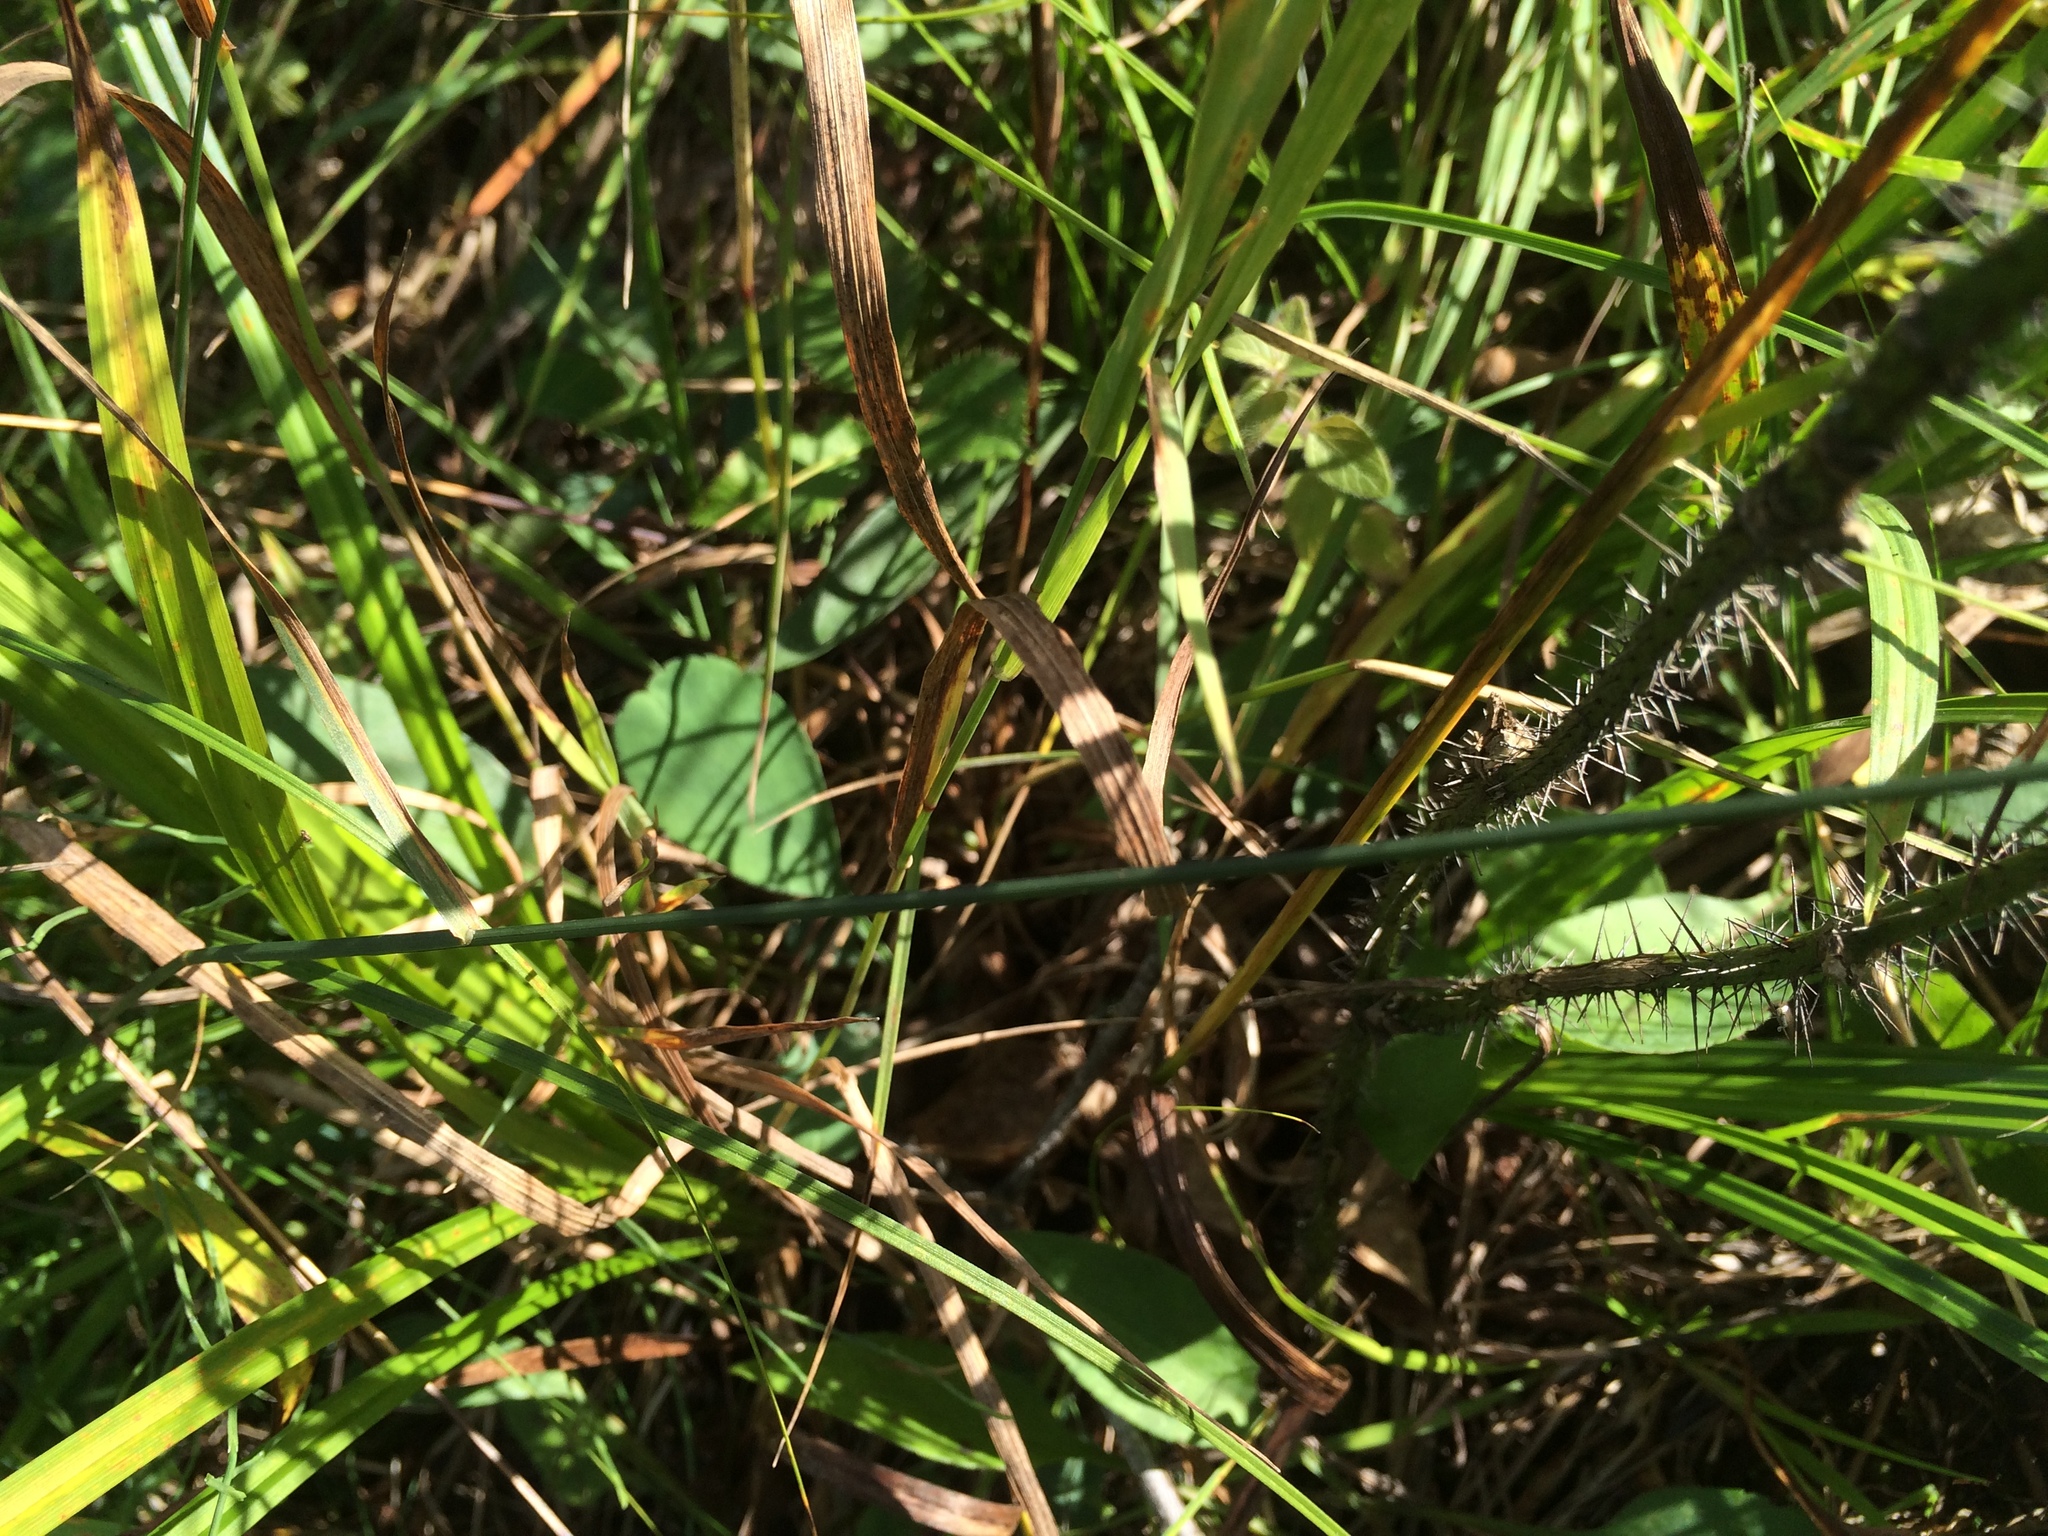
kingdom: Plantae
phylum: Tracheophyta
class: Liliopsida
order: Liliales
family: Smilacaceae
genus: Smilax
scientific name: Smilax tamnoides
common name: Hellfetter
